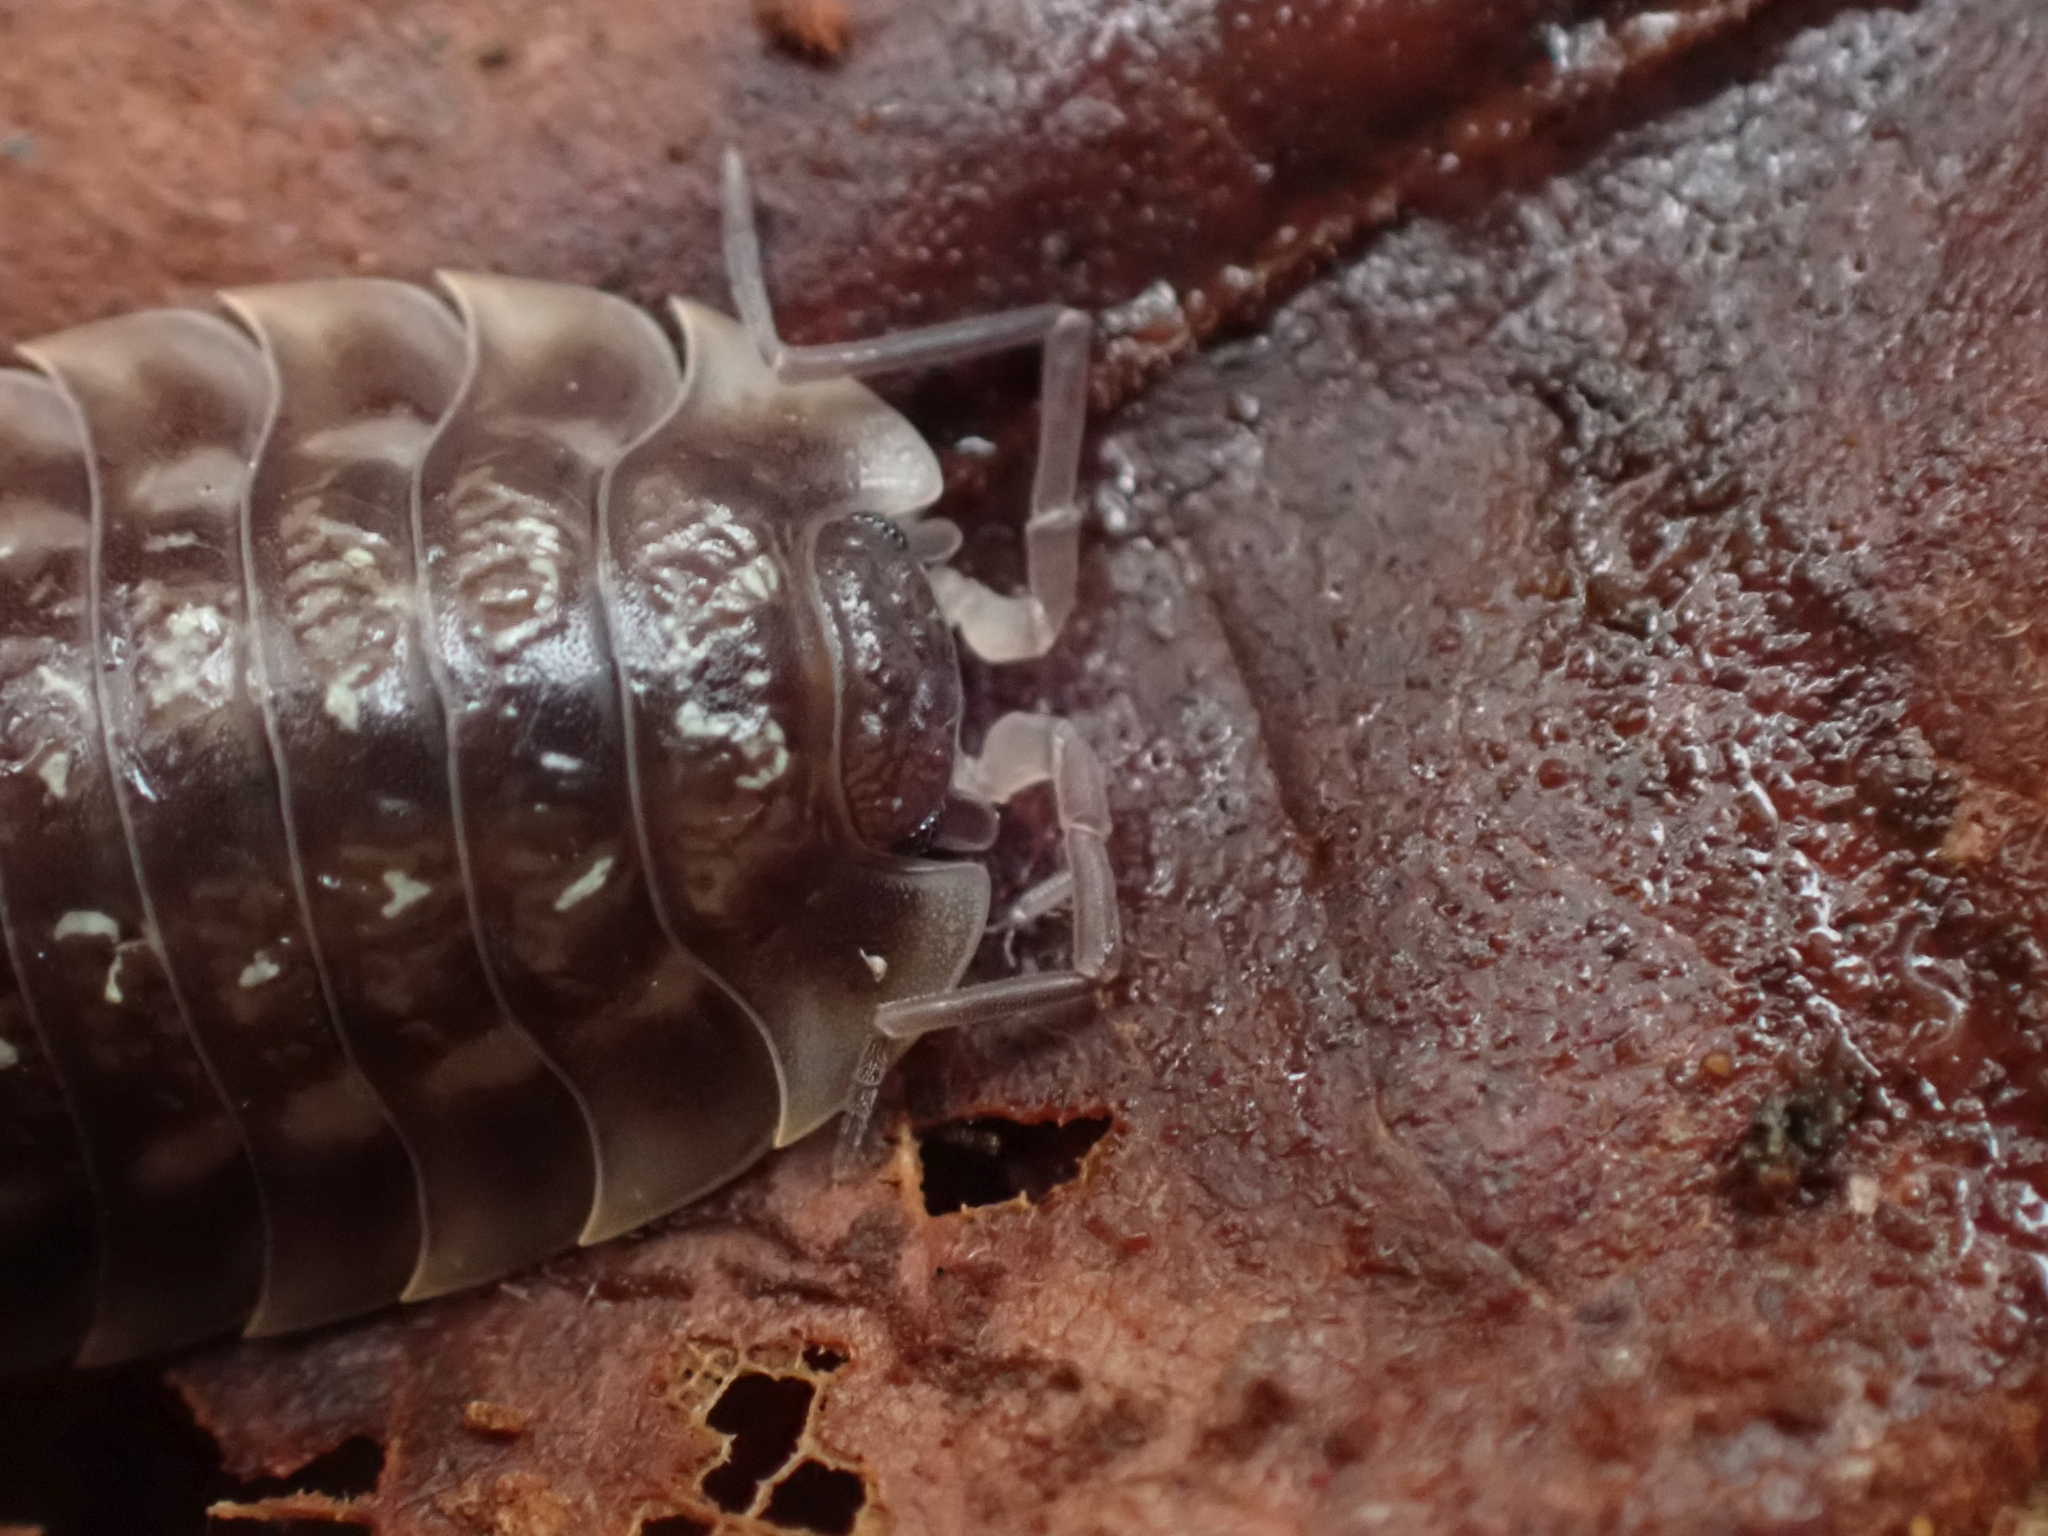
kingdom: Animalia
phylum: Arthropoda
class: Malacostraca
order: Isopoda
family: Oniscidae
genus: Oniscus
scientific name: Oniscus asellus
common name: Common shiny woodlouse
